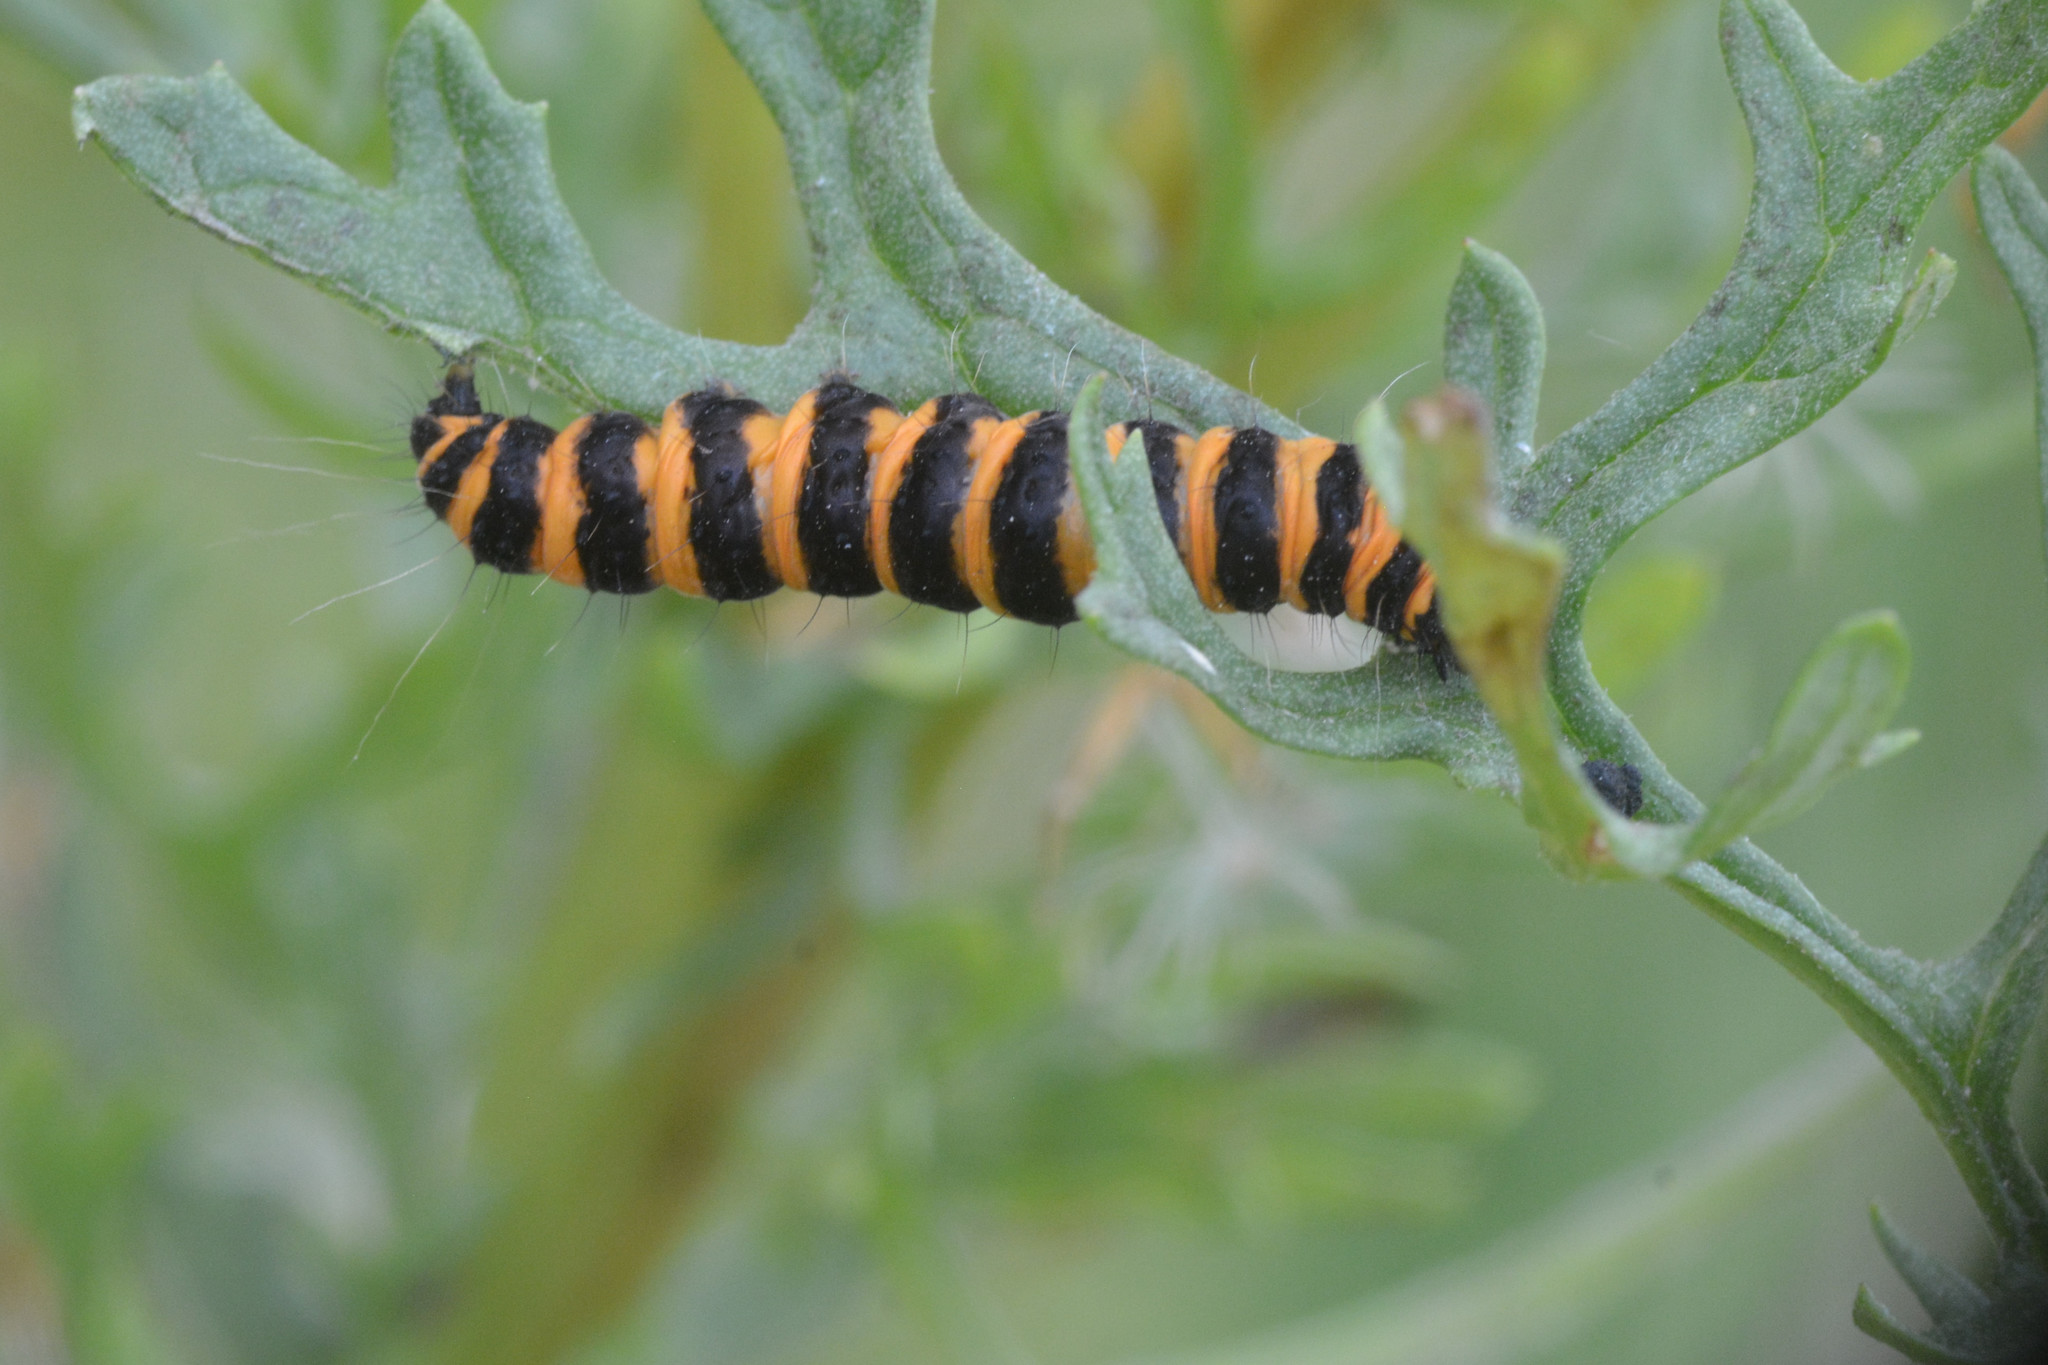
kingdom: Animalia
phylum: Arthropoda
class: Insecta
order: Lepidoptera
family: Erebidae
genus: Tyria
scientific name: Tyria jacobaeae
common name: Cinnabar
